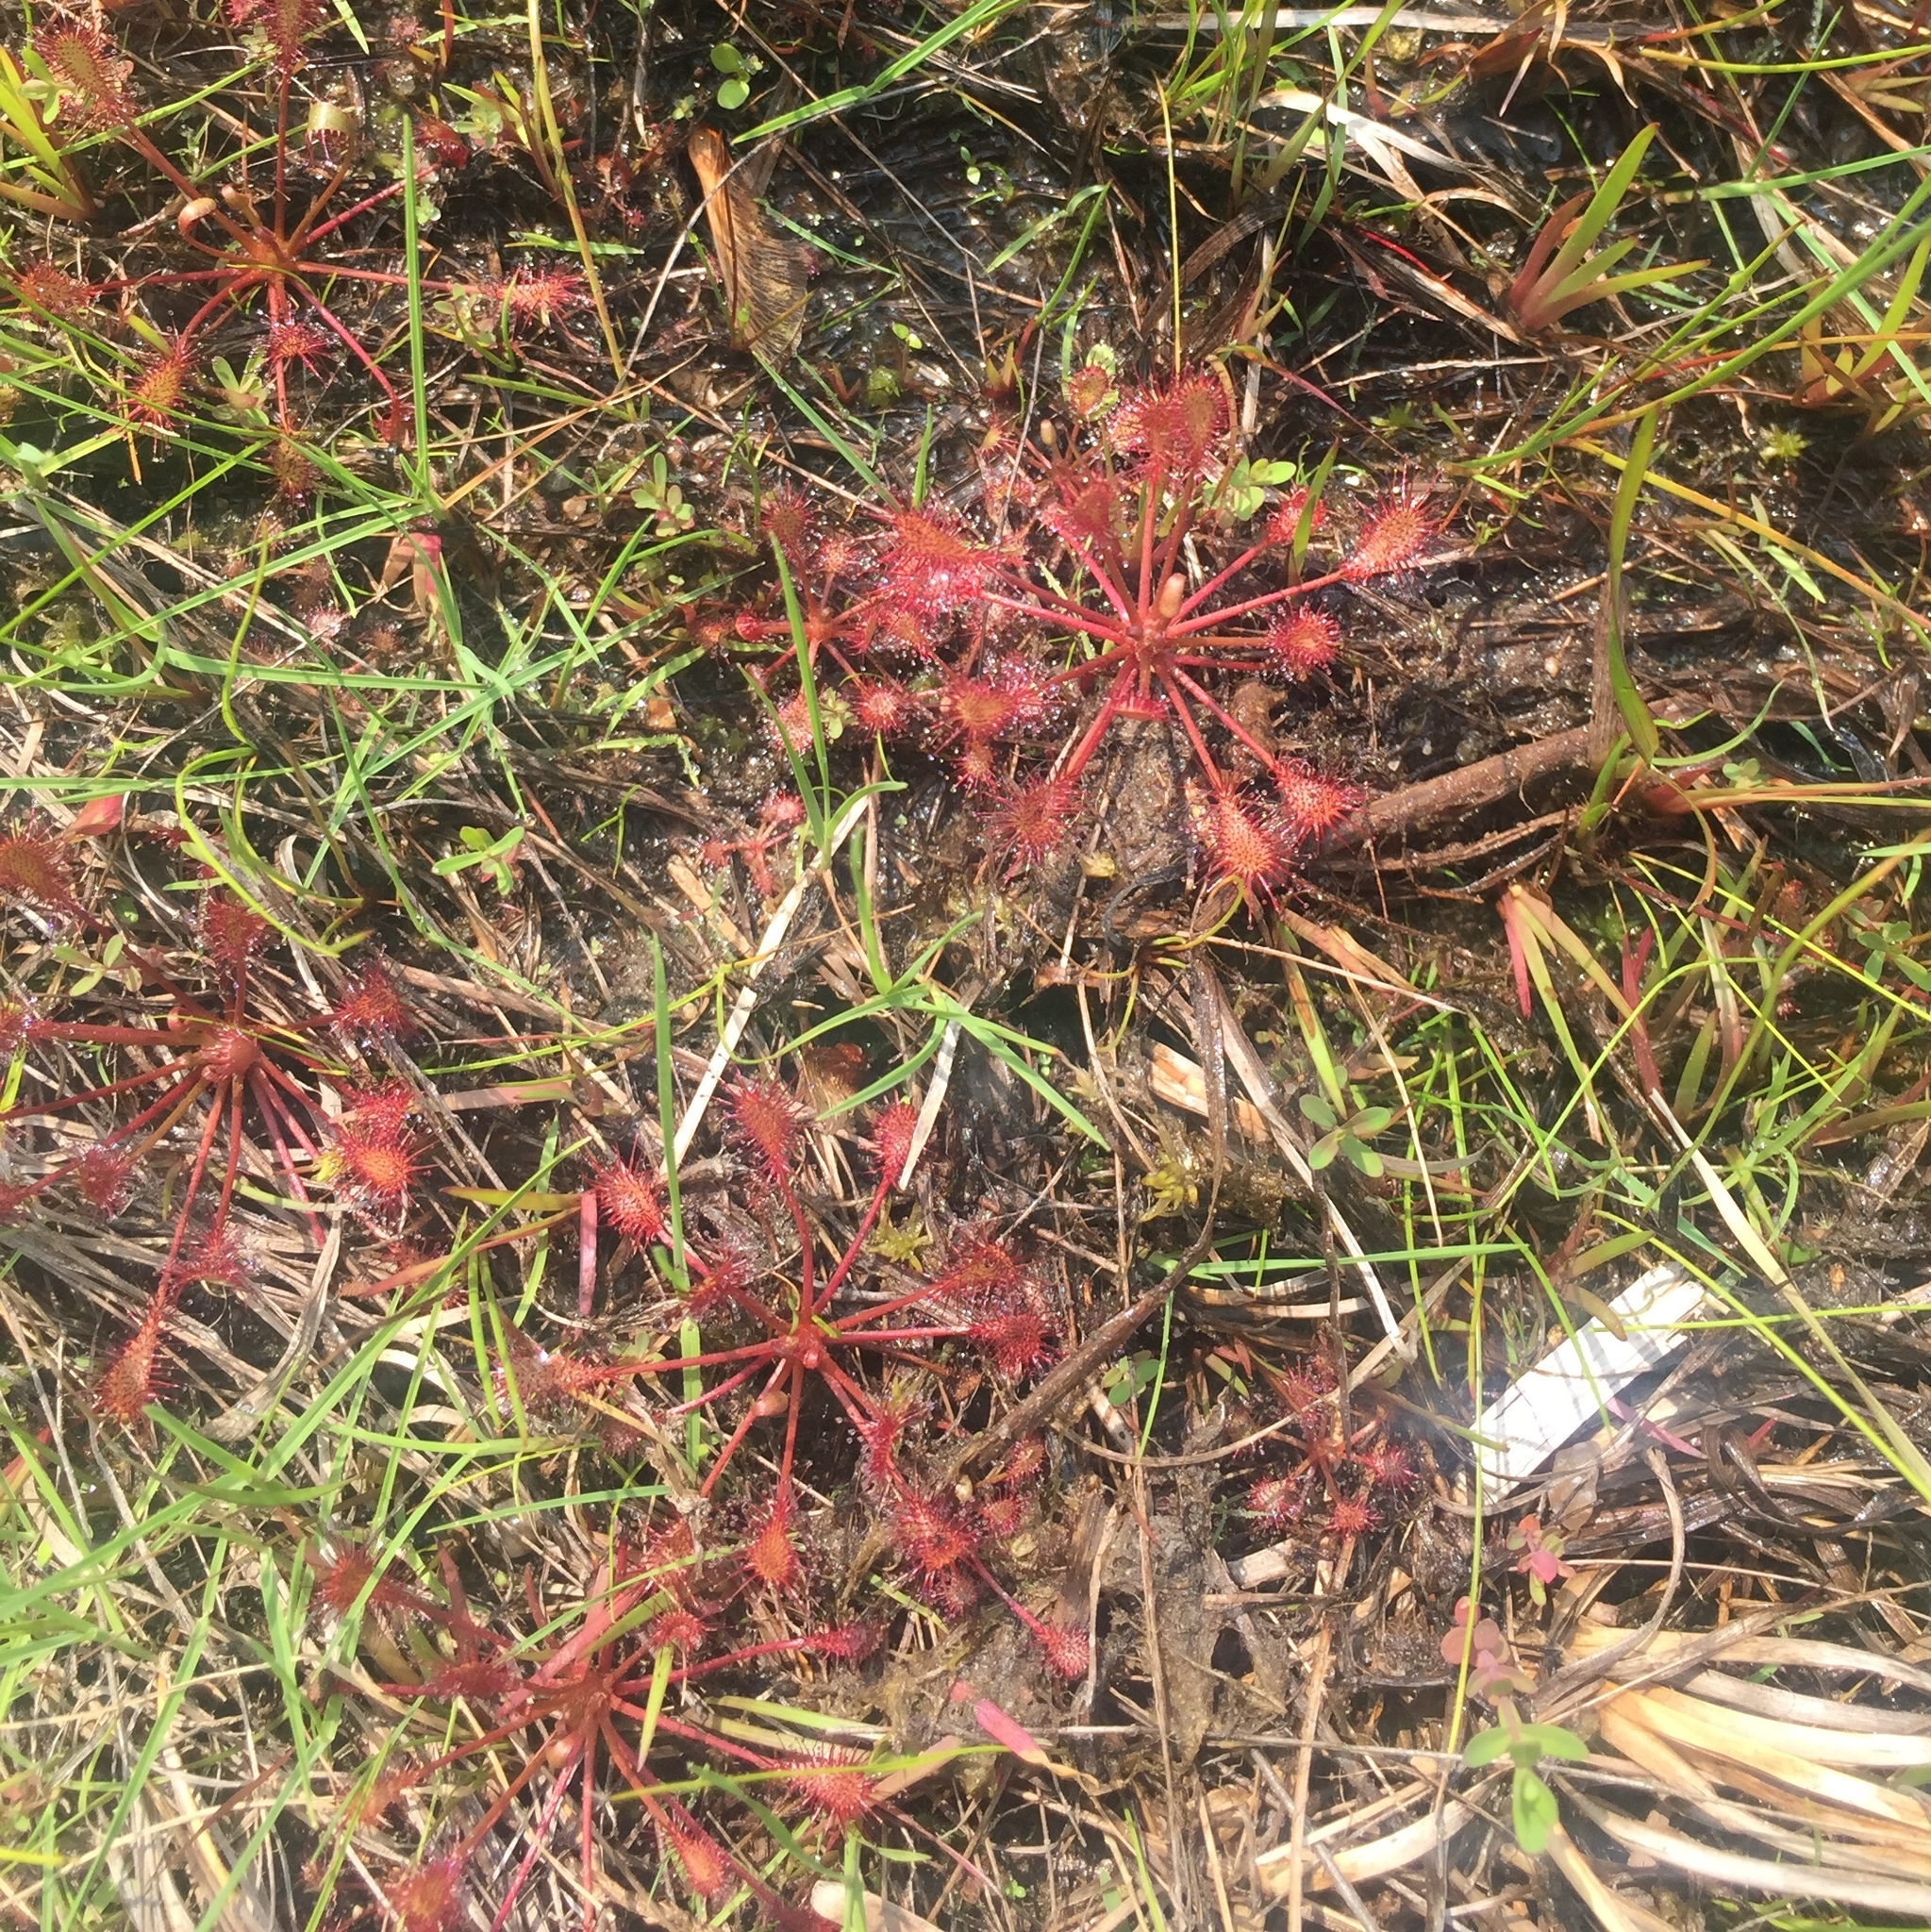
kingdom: Plantae
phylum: Tracheophyta
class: Magnoliopsida
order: Caryophyllales
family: Droseraceae
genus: Drosera
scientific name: Drosera intermedia
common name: Oblong-leaved sundew
